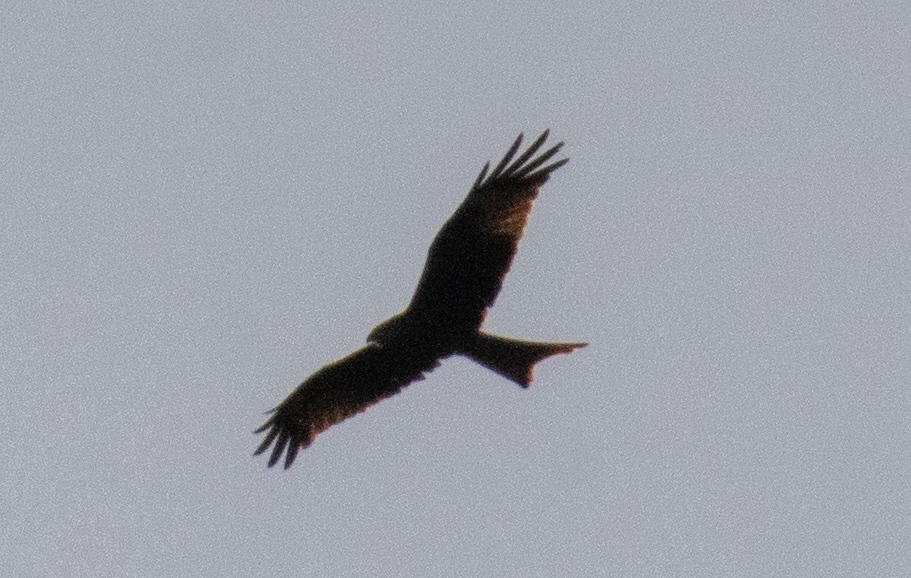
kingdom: Animalia
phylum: Chordata
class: Aves
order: Accipitriformes
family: Accipitridae
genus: Milvus
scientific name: Milvus milvus
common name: Red kite
